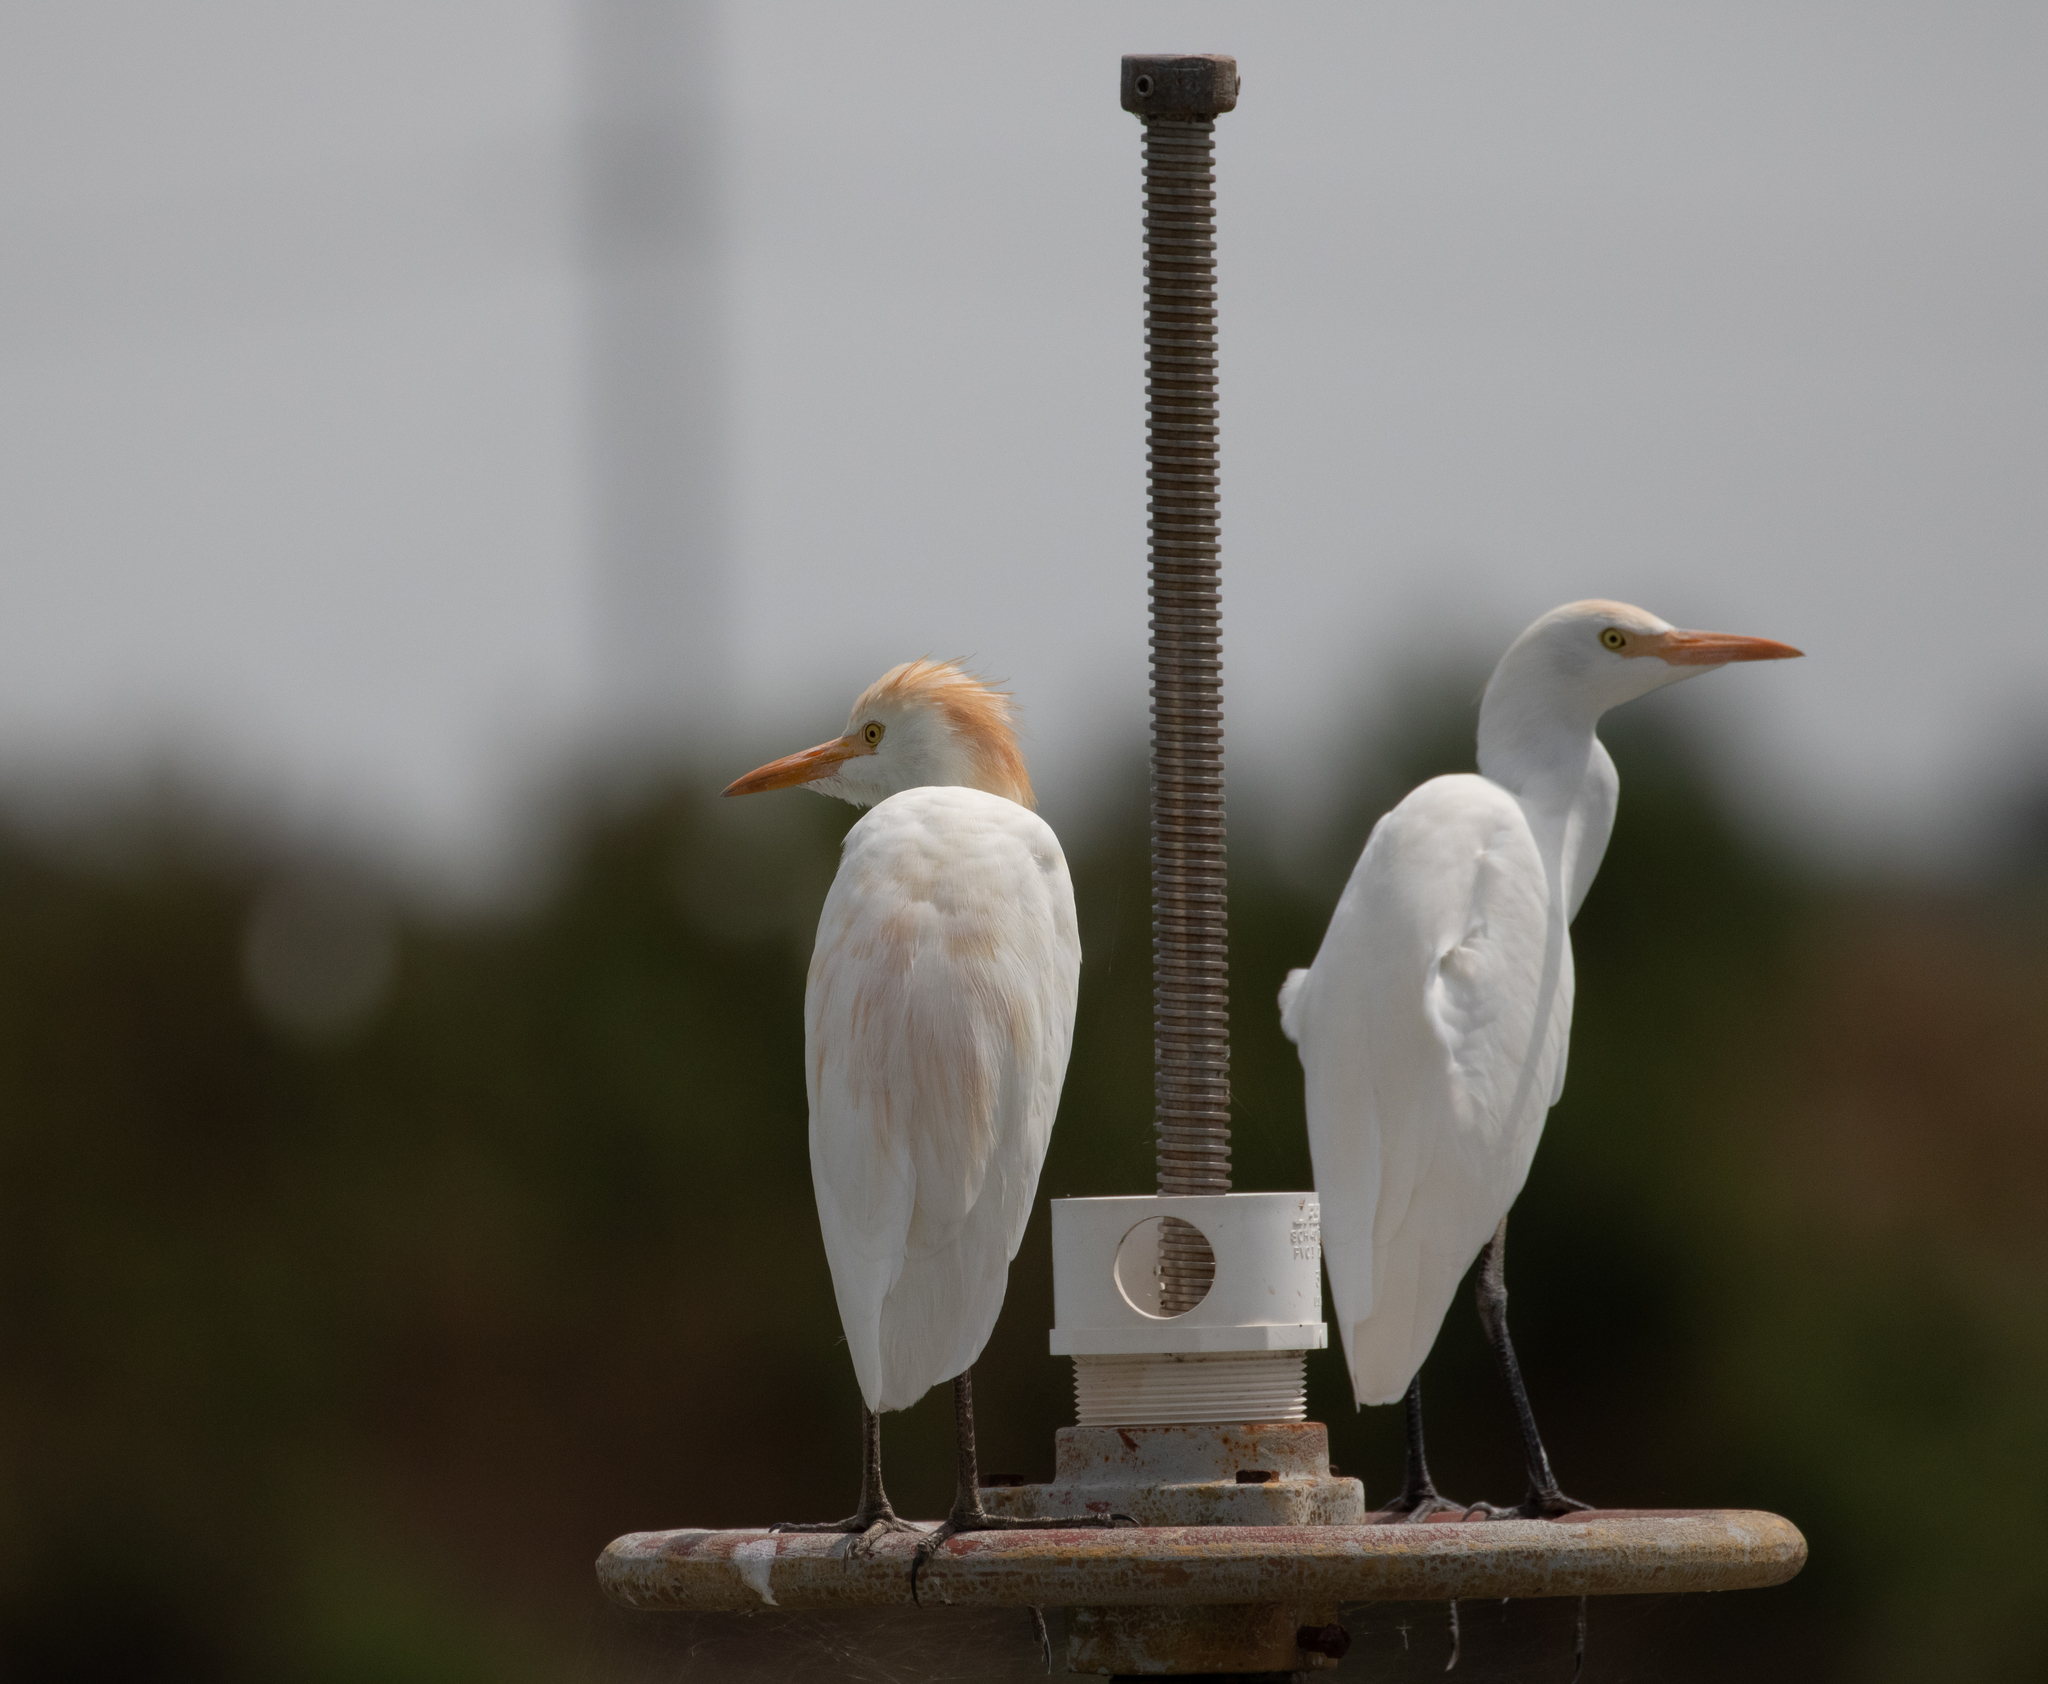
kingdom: Animalia
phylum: Chordata
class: Aves
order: Pelecaniformes
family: Ardeidae
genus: Bubulcus
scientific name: Bubulcus ibis
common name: Cattle egret
